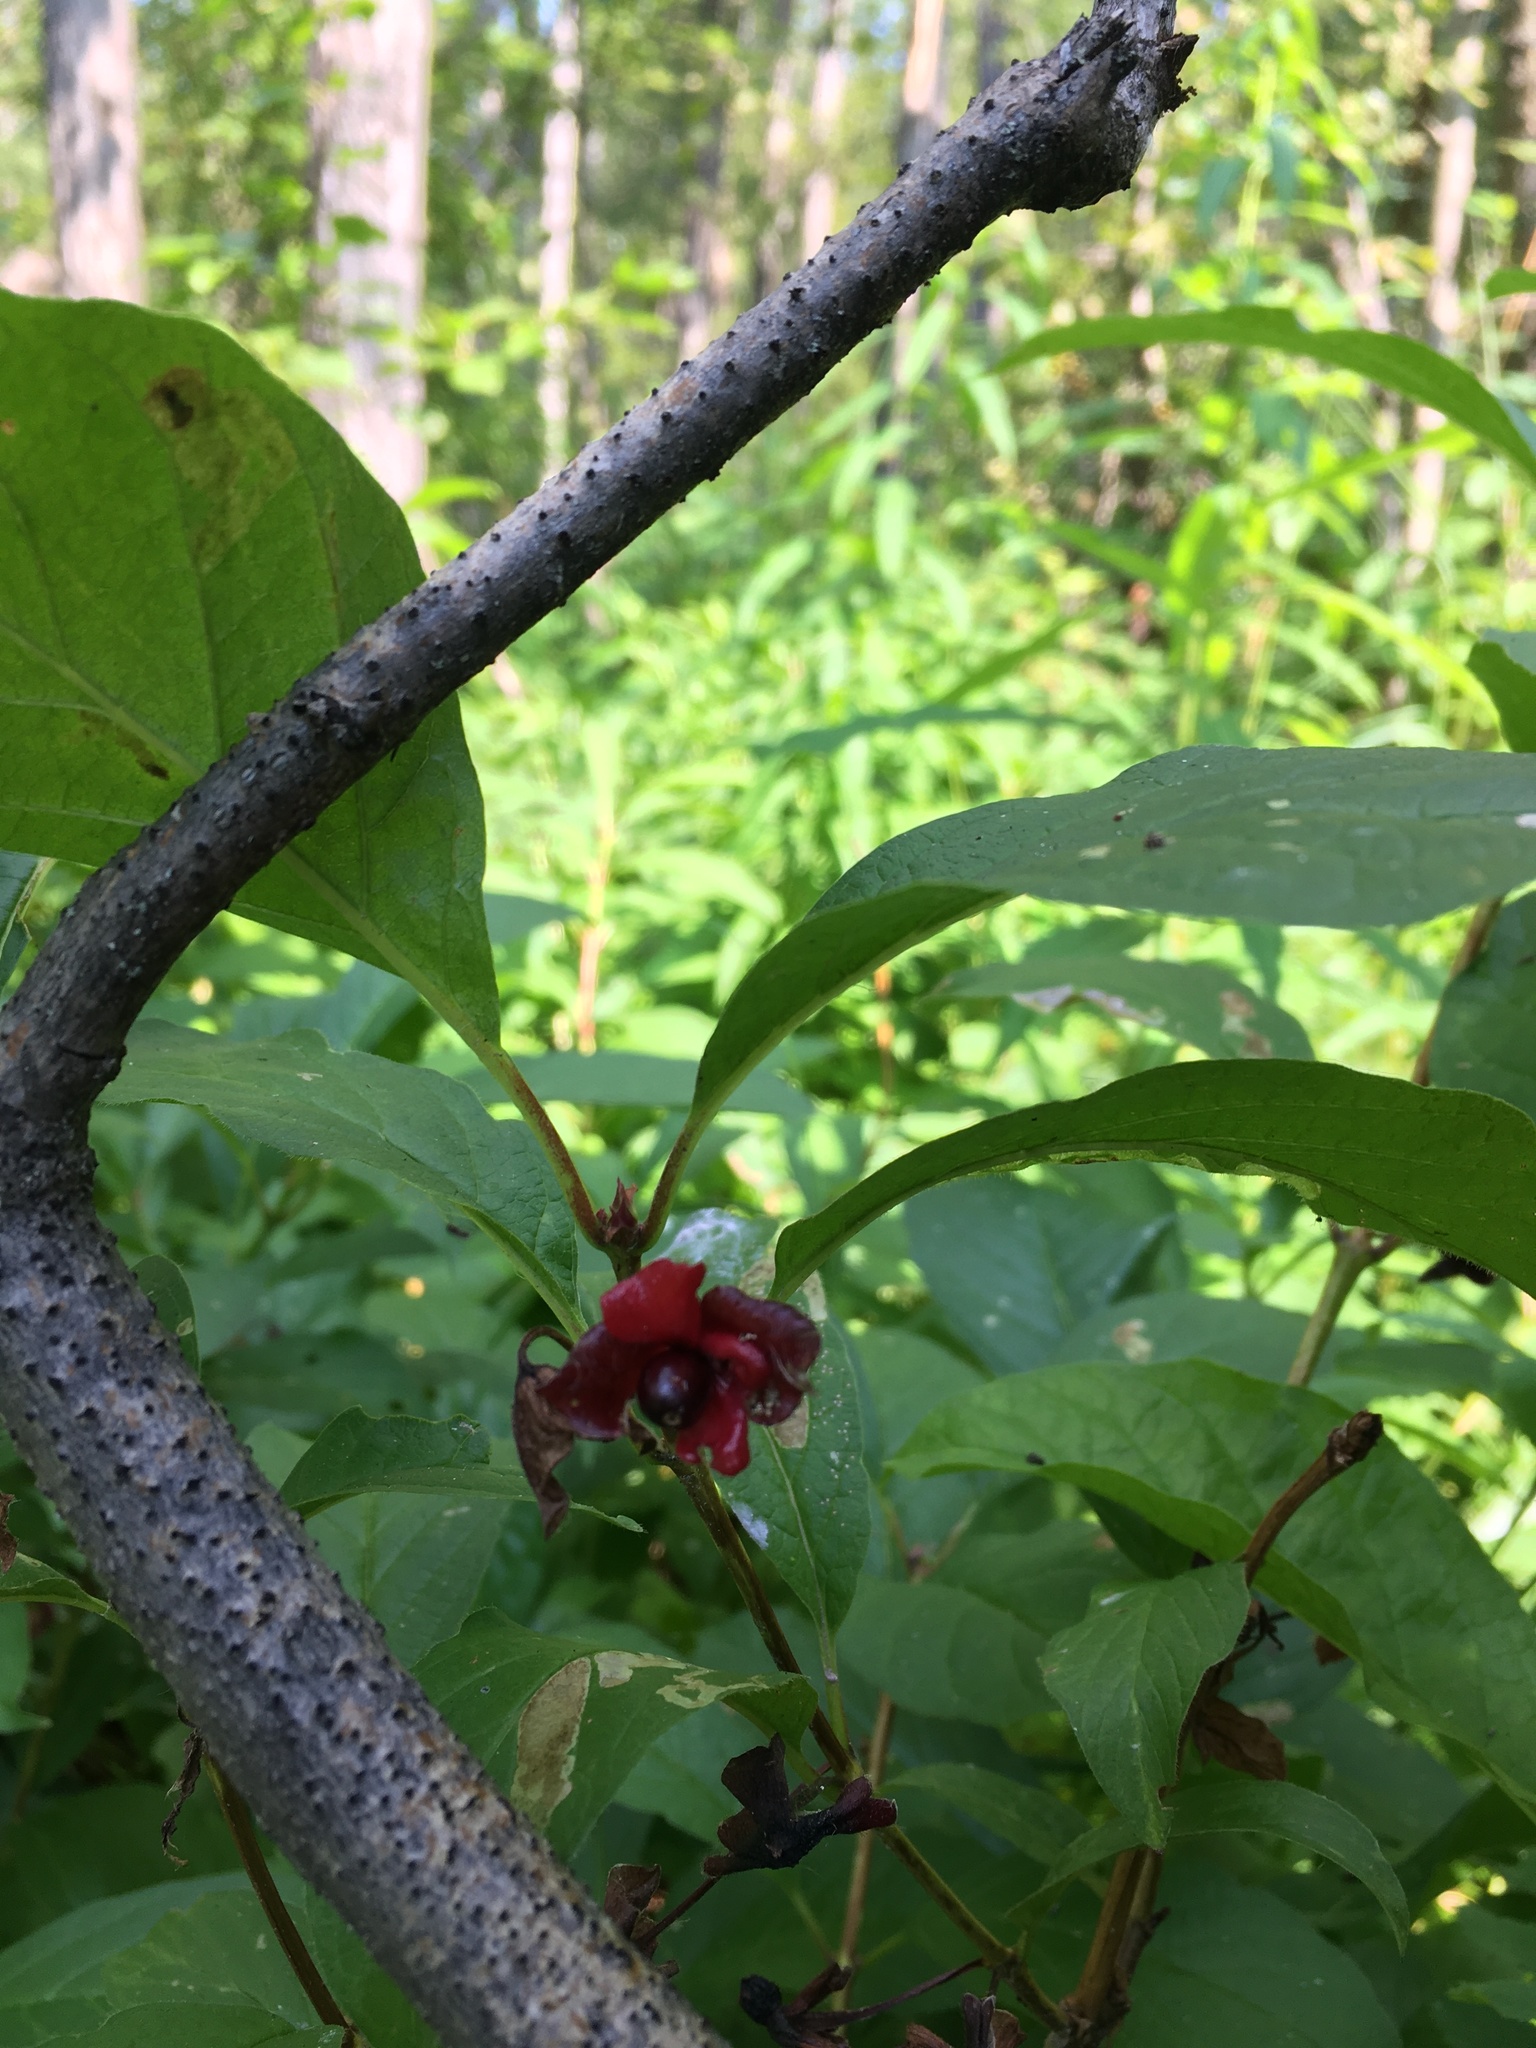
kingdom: Plantae
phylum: Tracheophyta
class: Magnoliopsida
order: Dipsacales
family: Caprifoliaceae
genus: Lonicera
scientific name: Lonicera involucrata
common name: Californian honeysuckle
